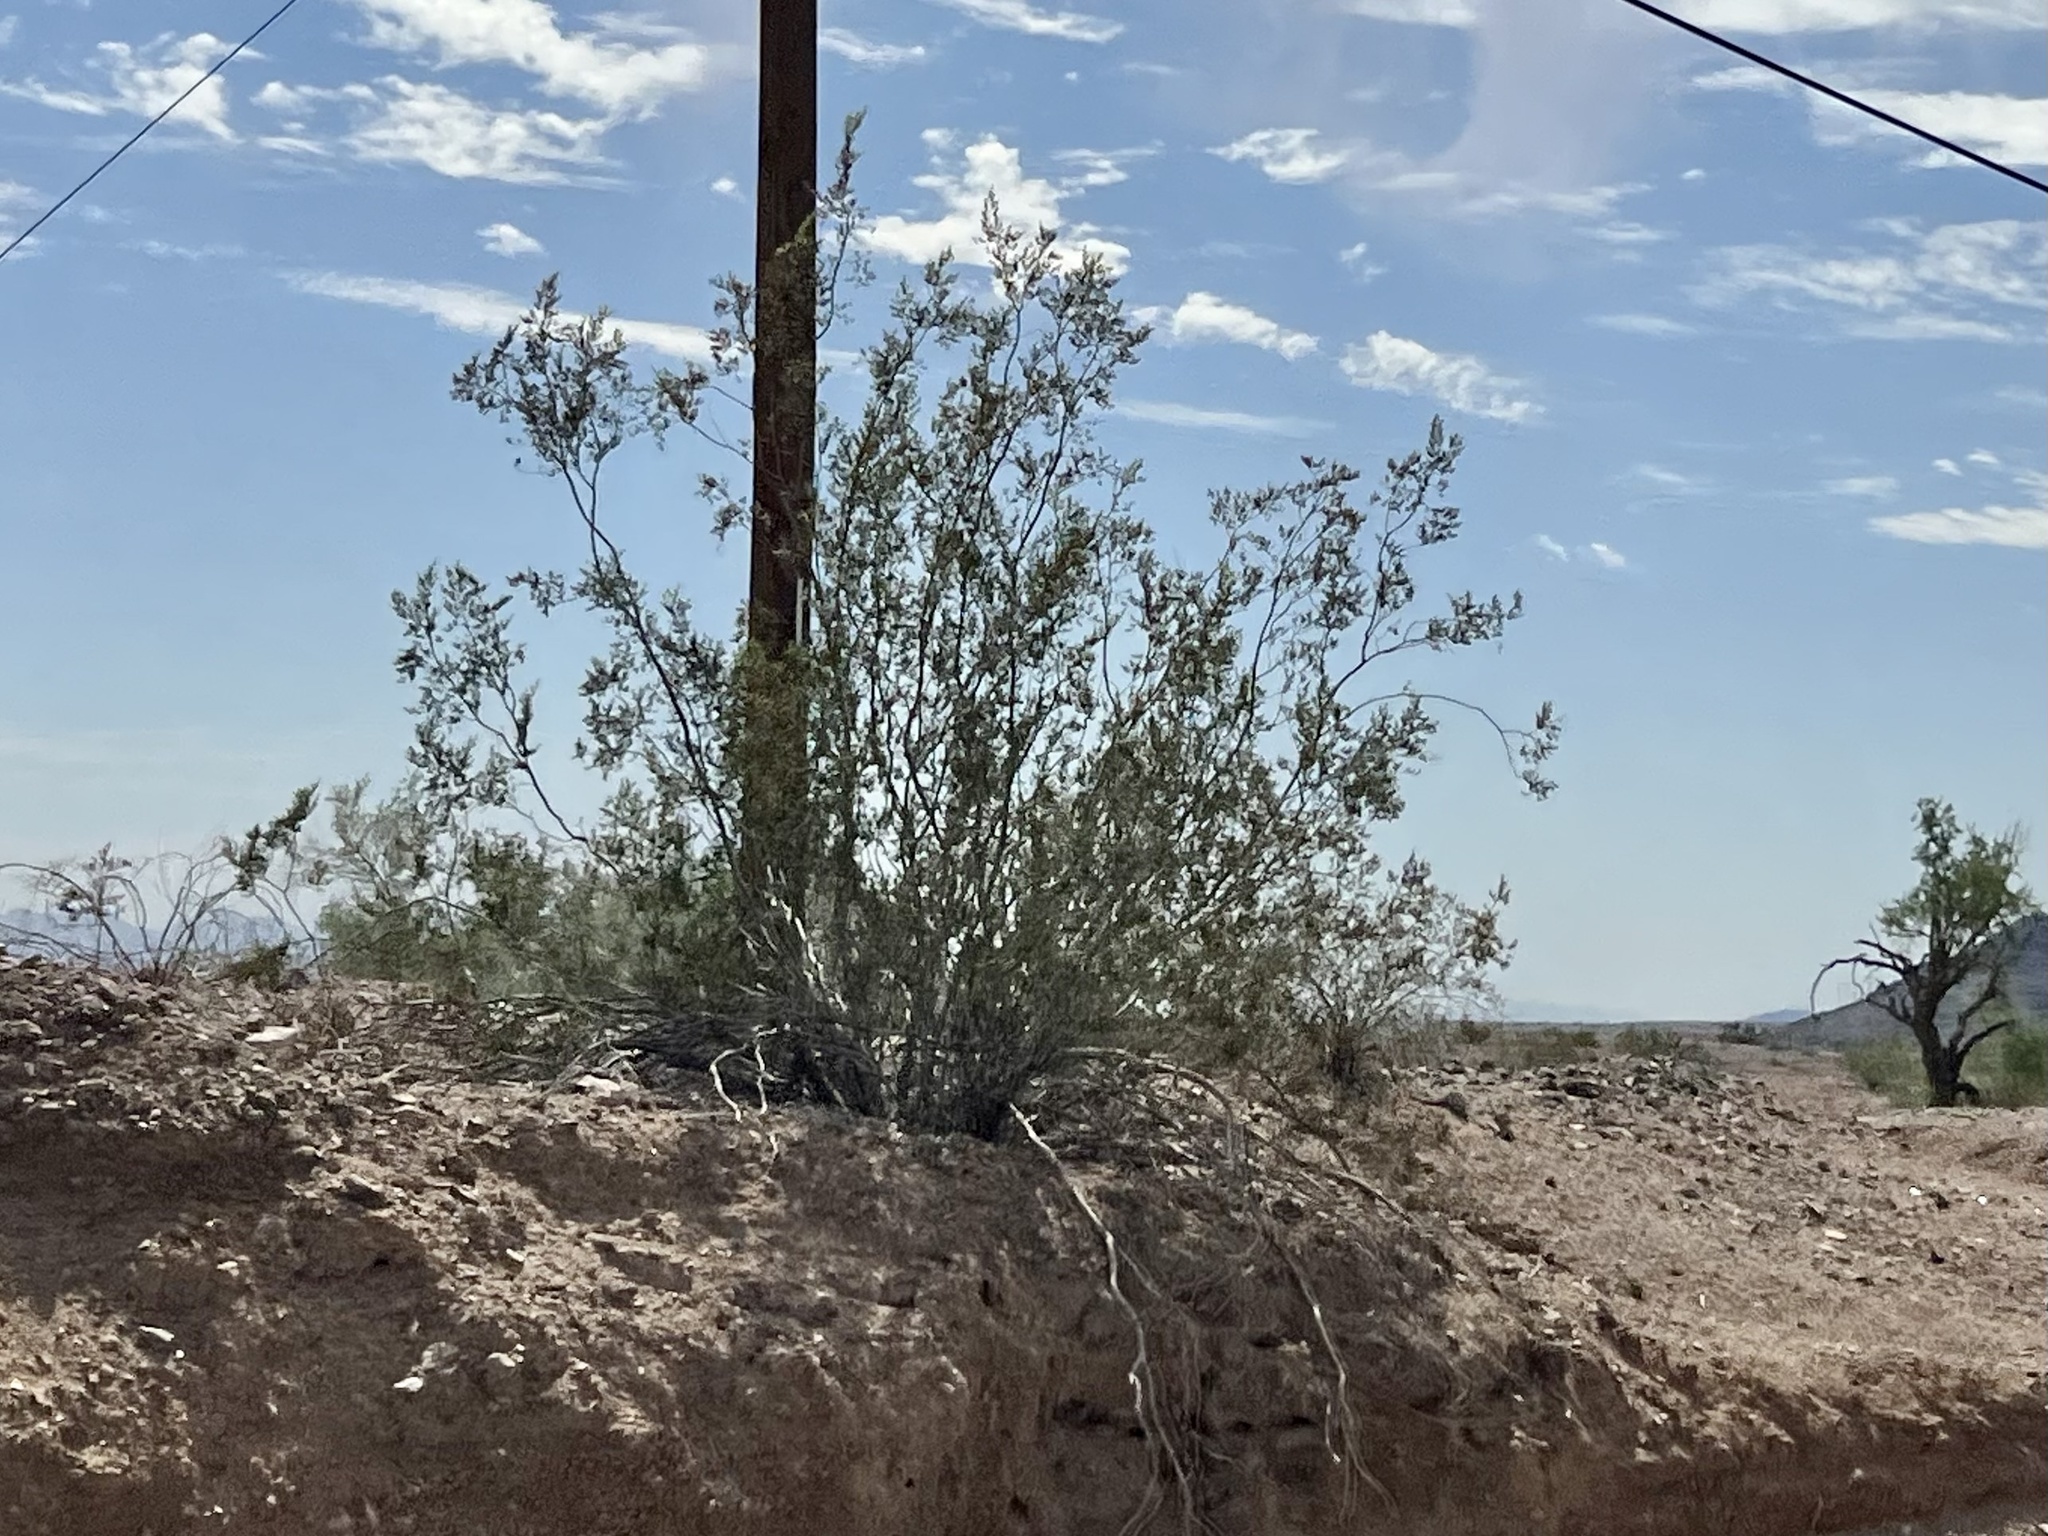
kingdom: Plantae
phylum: Tracheophyta
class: Magnoliopsida
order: Zygophyllales
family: Zygophyllaceae
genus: Larrea
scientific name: Larrea tridentata
